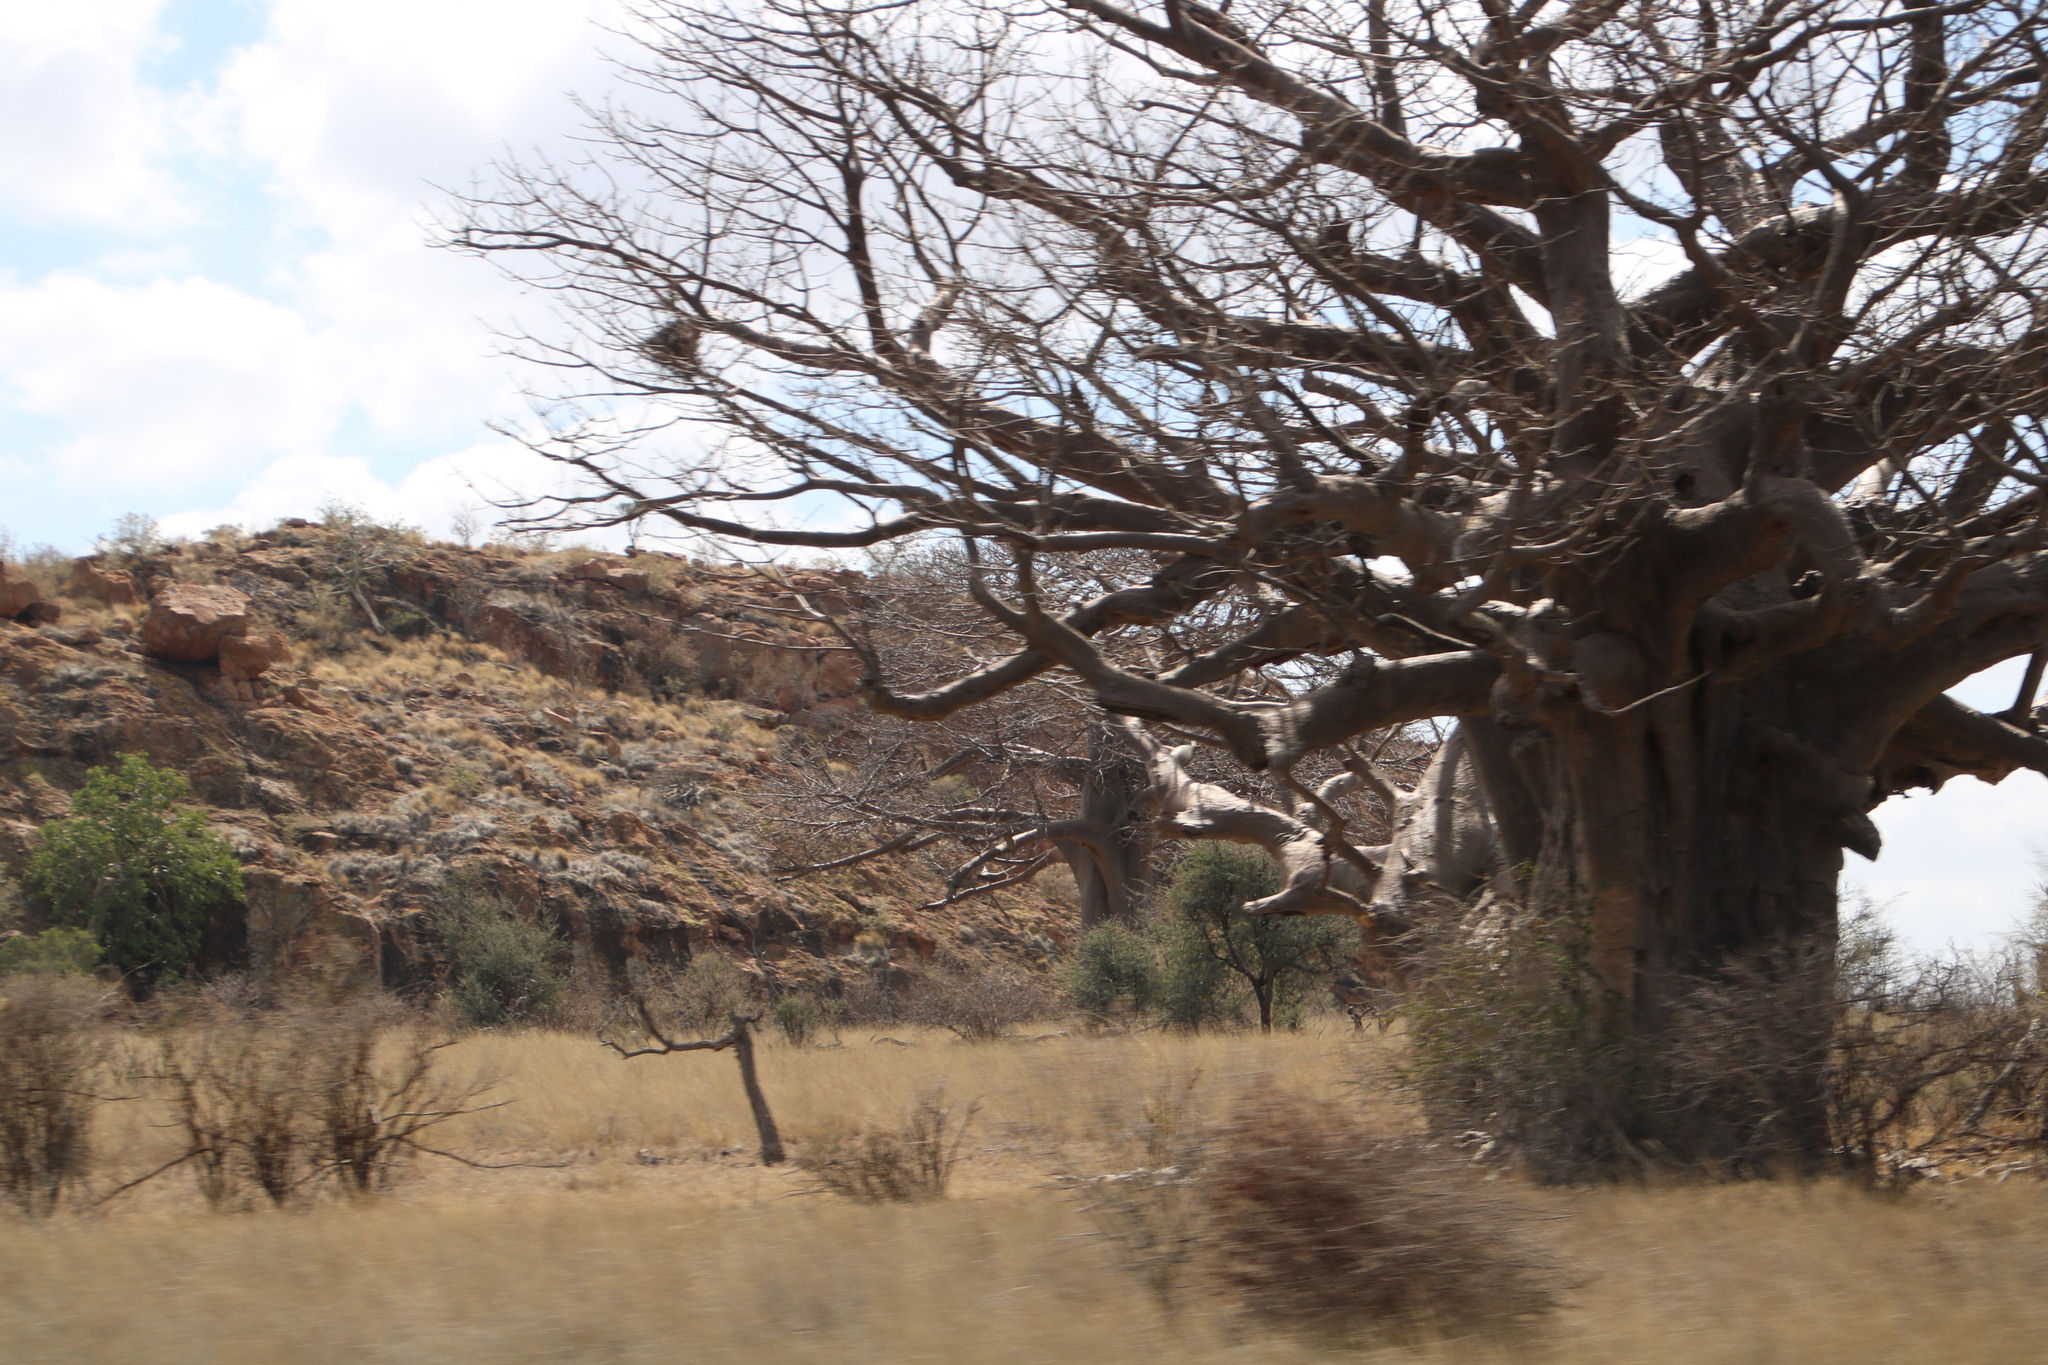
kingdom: Plantae
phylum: Tracheophyta
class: Magnoliopsida
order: Malvales
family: Malvaceae
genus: Adansonia
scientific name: Adansonia digitata
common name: Dead-rat-tree
